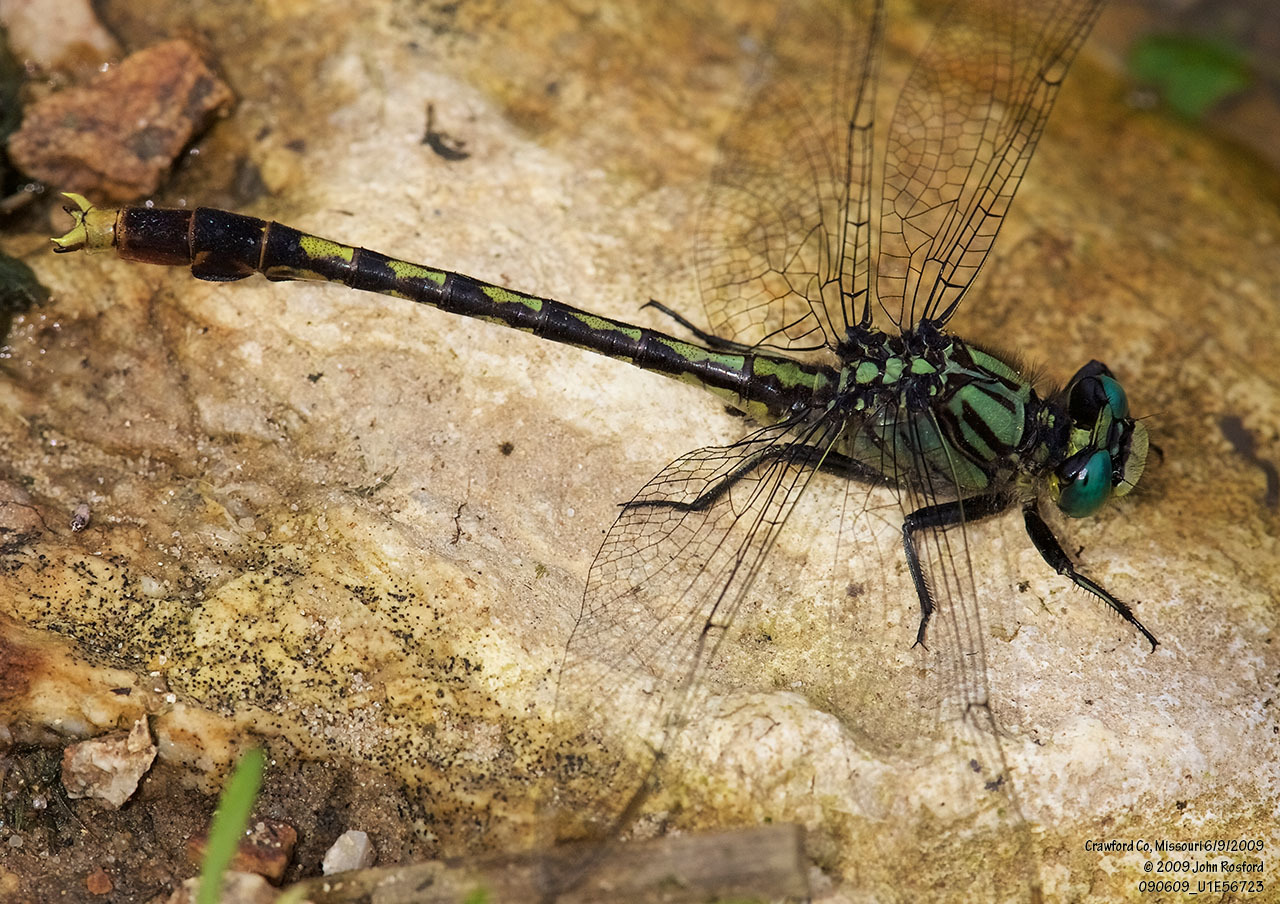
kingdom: Animalia
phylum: Arthropoda
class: Insecta
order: Odonata
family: Gomphidae
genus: Arigomphus
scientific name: Arigomphus villosipes
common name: Unicorn clubtail
